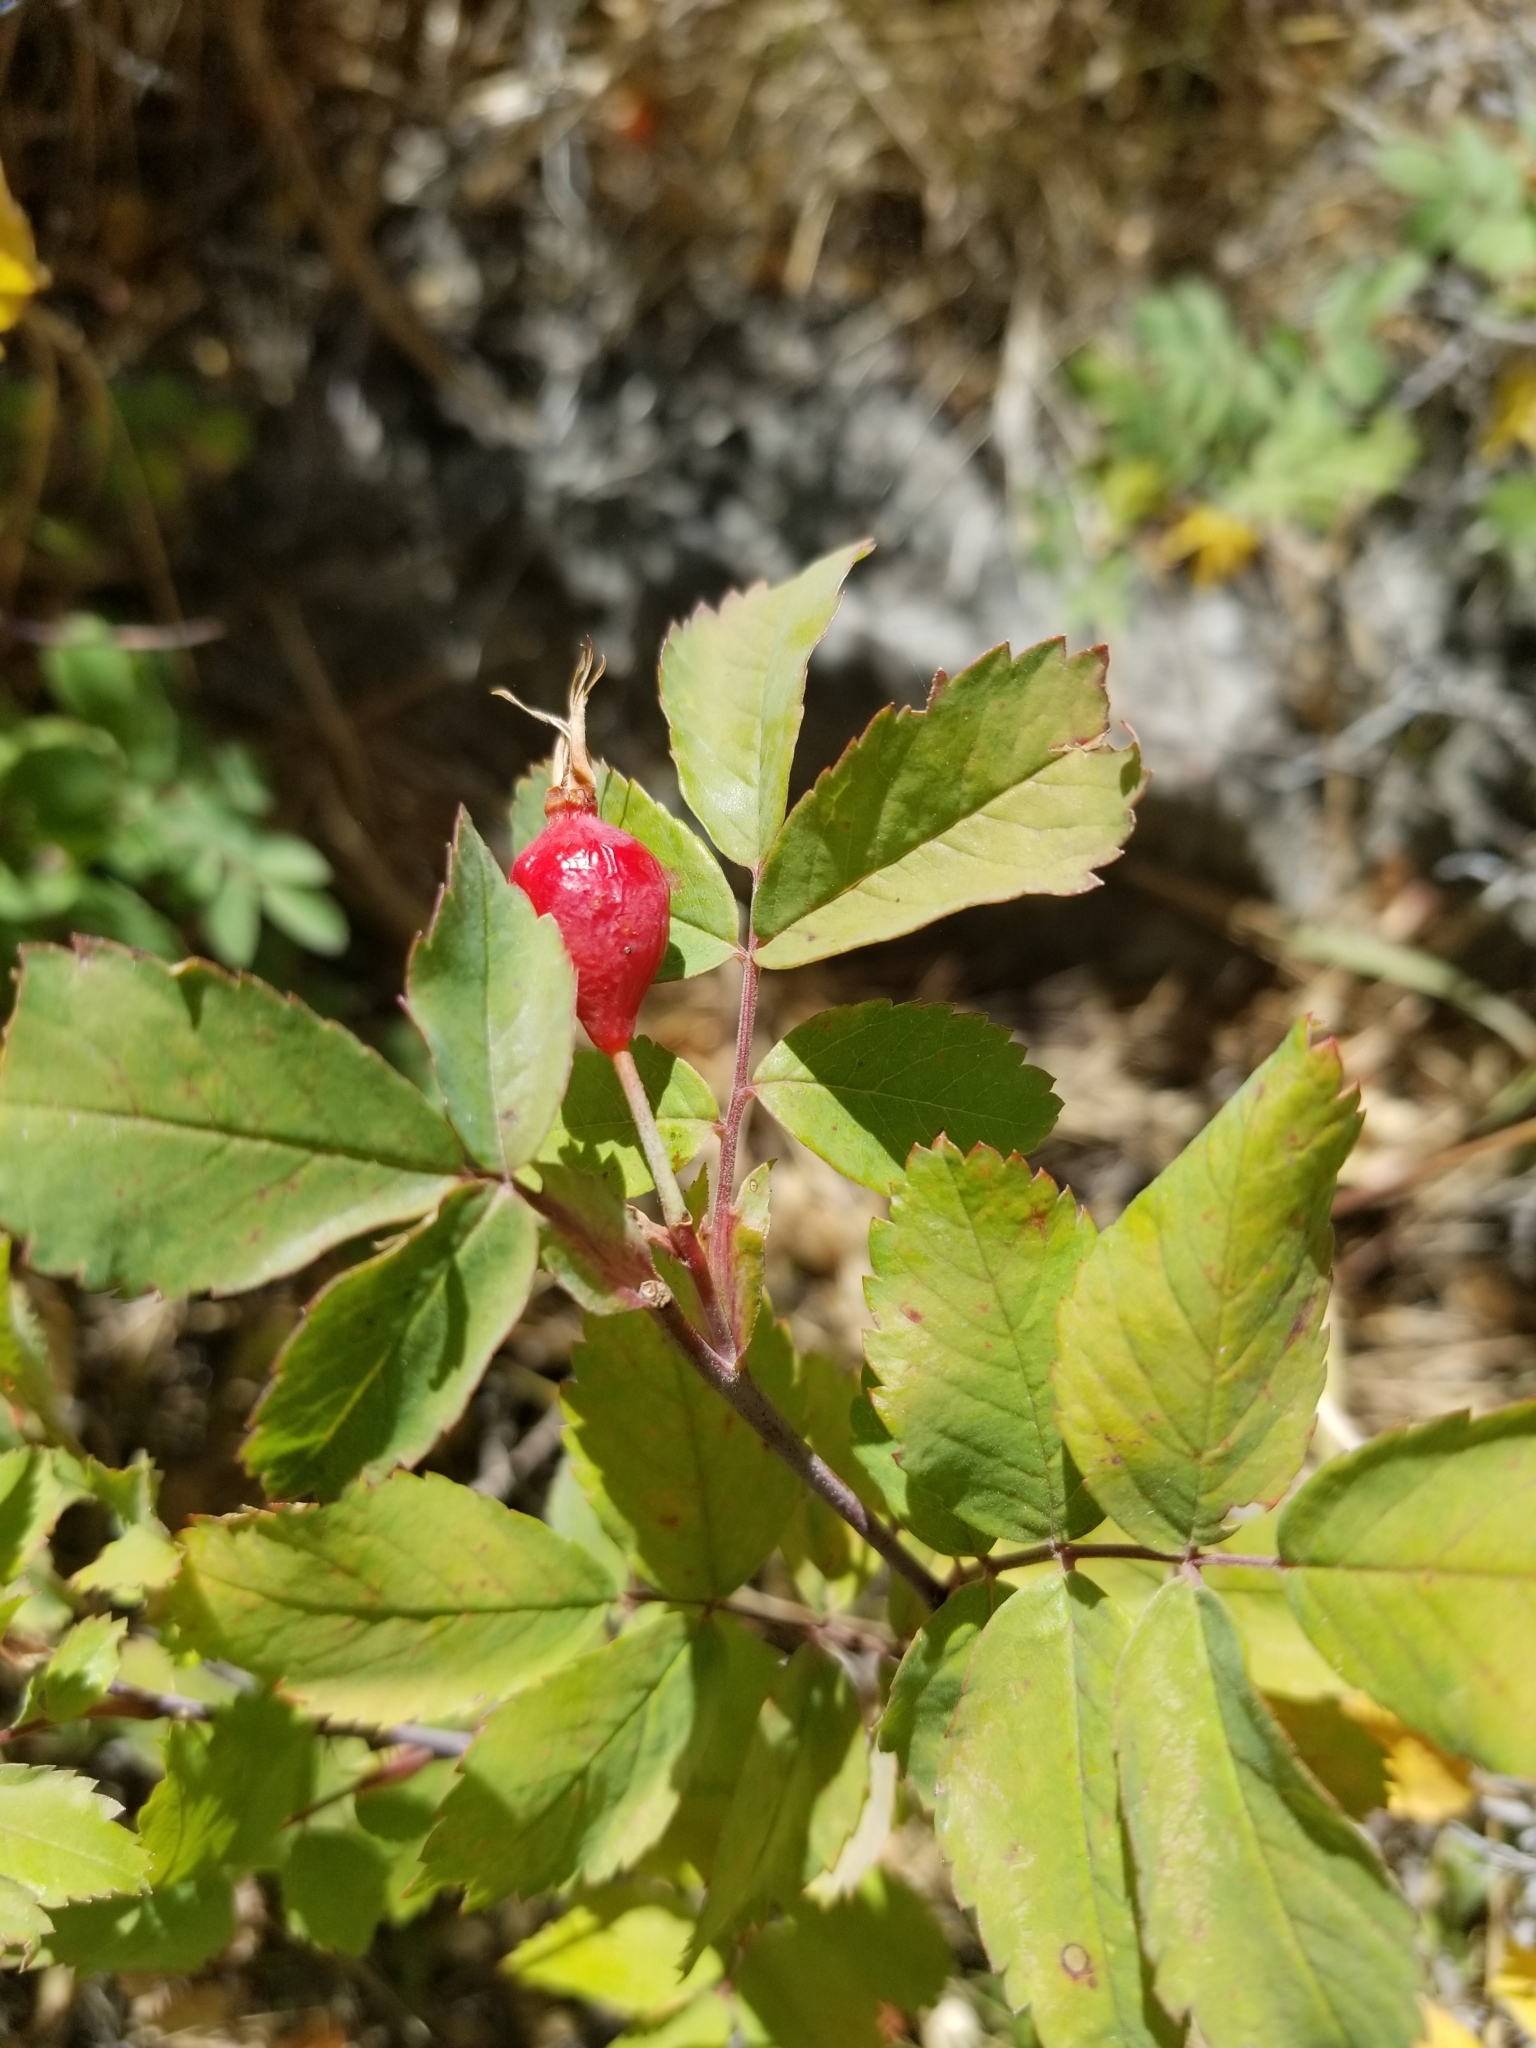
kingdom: Plantae
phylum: Tracheophyta
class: Magnoliopsida
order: Rosales
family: Rosaceae
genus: Rosa
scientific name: Rosa nutkana
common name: Nootka rose
